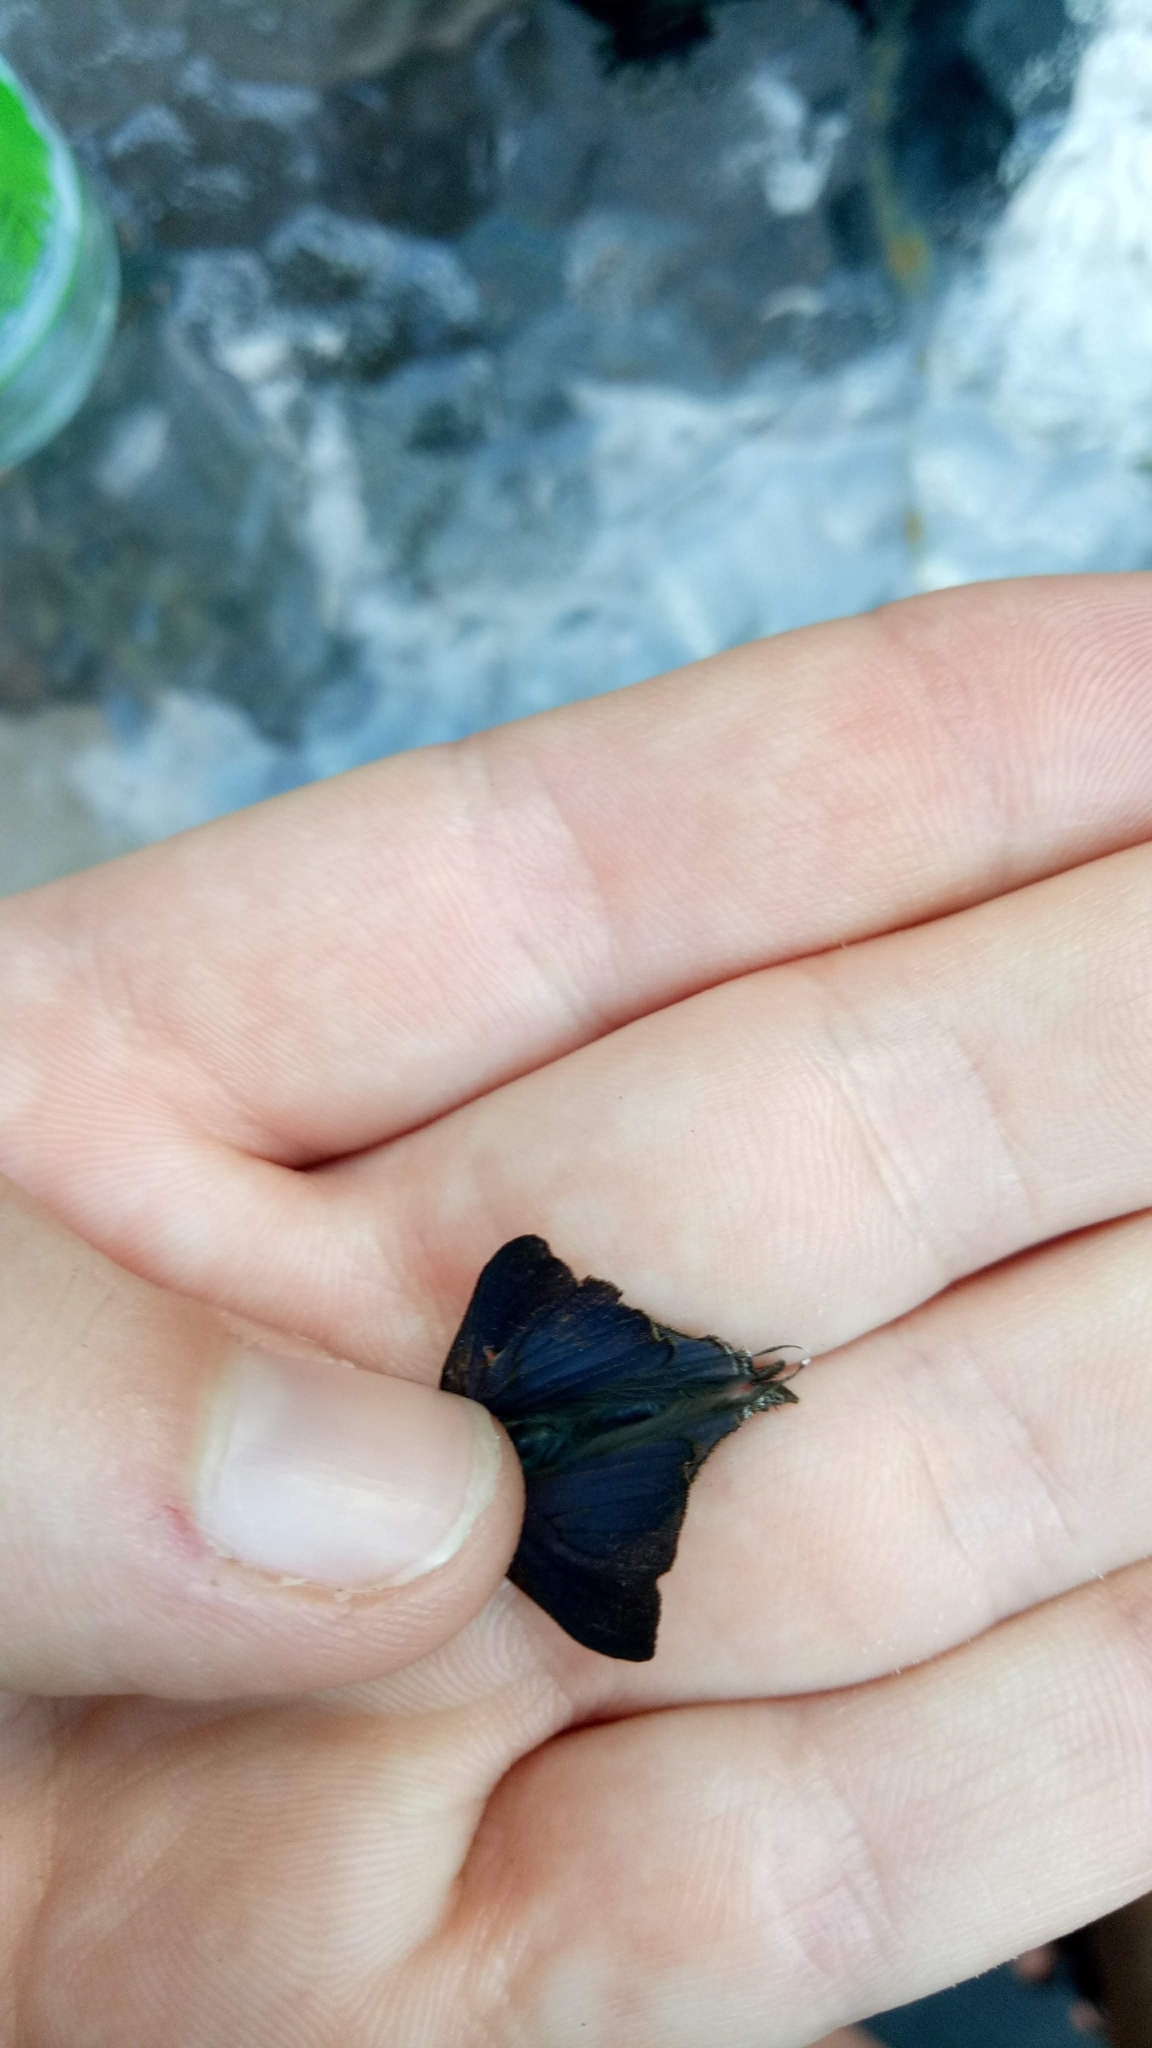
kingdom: Animalia
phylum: Arthropoda
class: Insecta
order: Lepidoptera
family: Lycaenidae
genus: Rapala
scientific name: Rapala varuna
